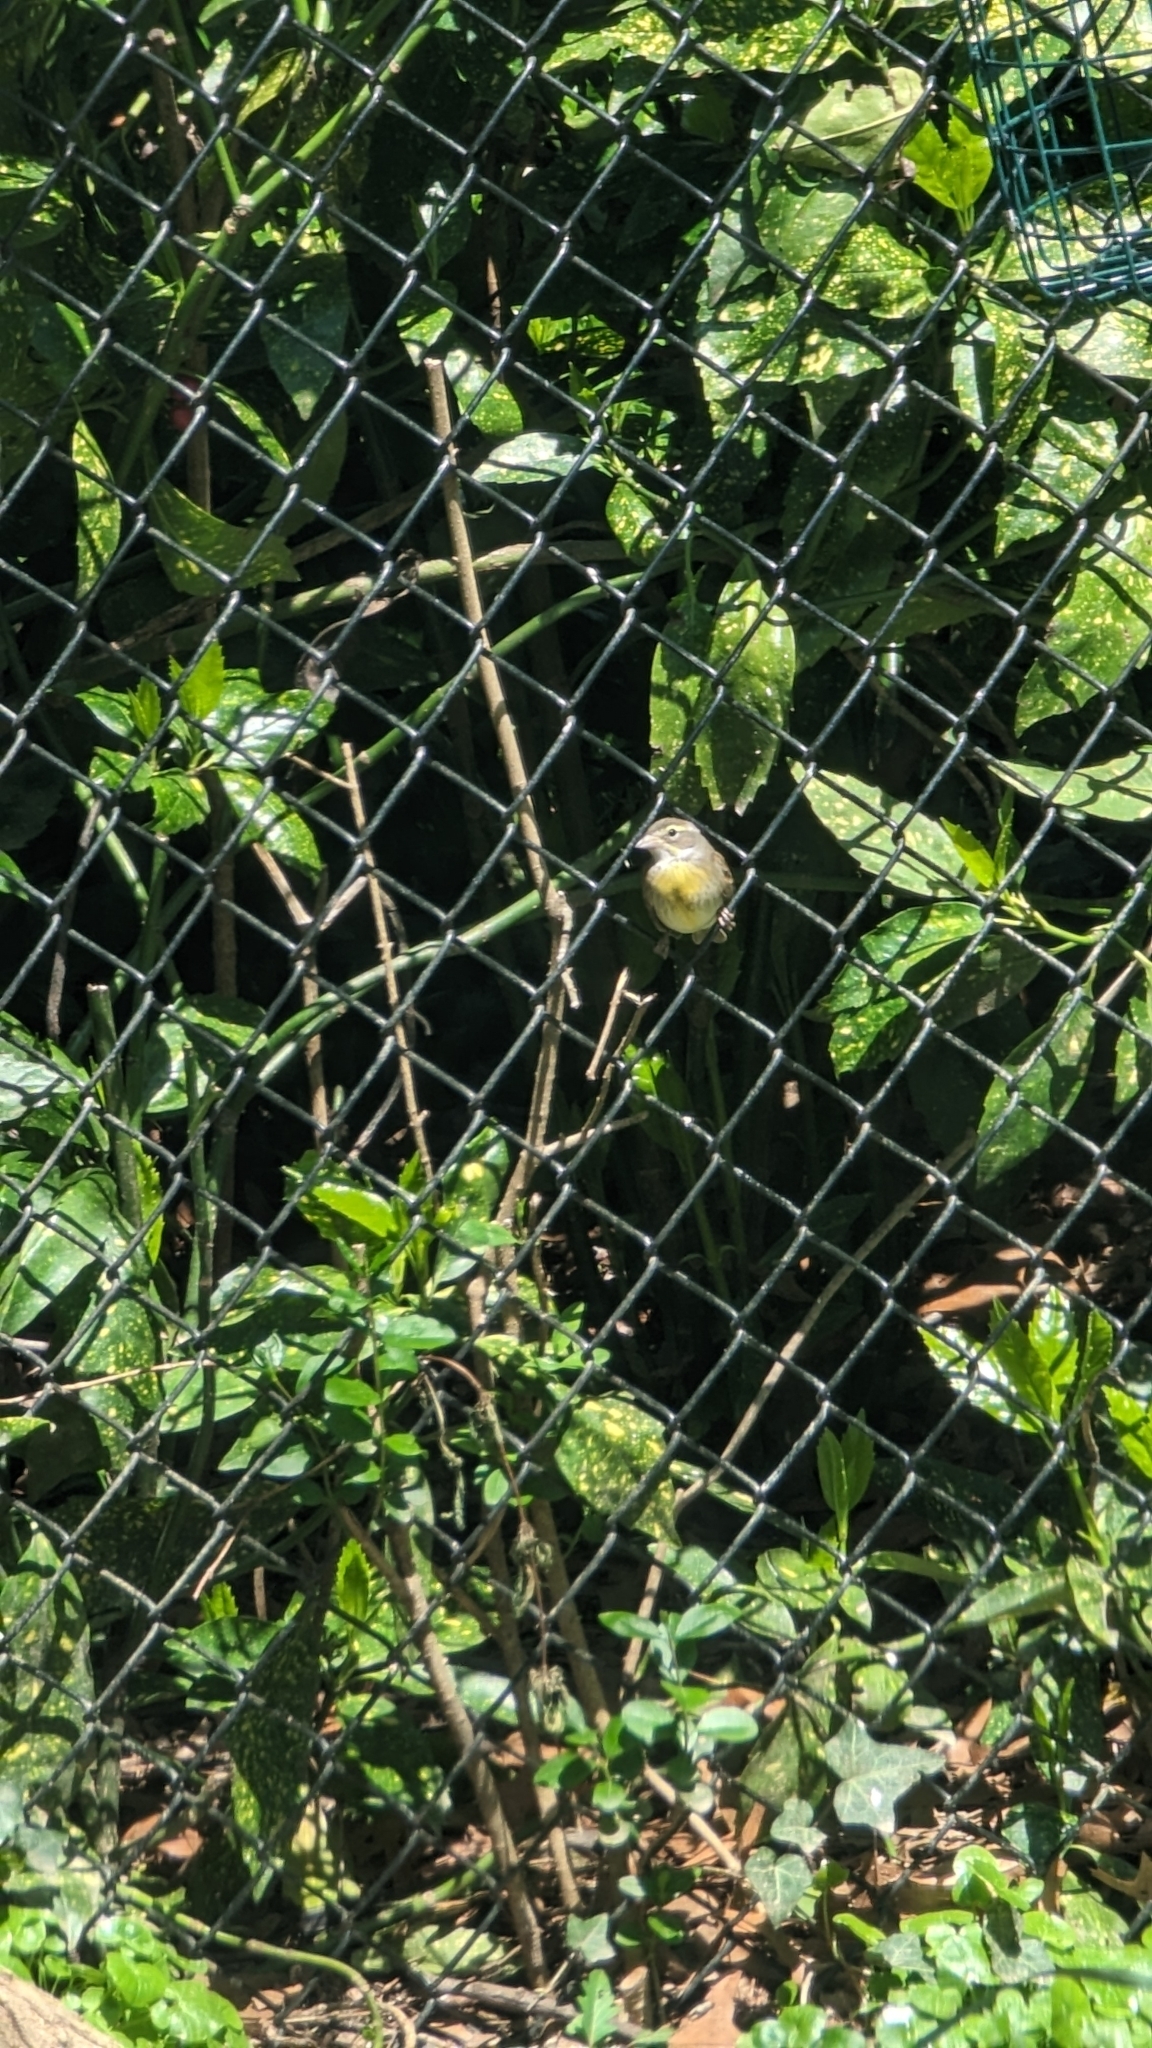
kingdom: Animalia
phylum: Chordata
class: Aves
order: Passeriformes
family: Cardinalidae
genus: Spiza
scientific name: Spiza americana
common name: Dickcissel
